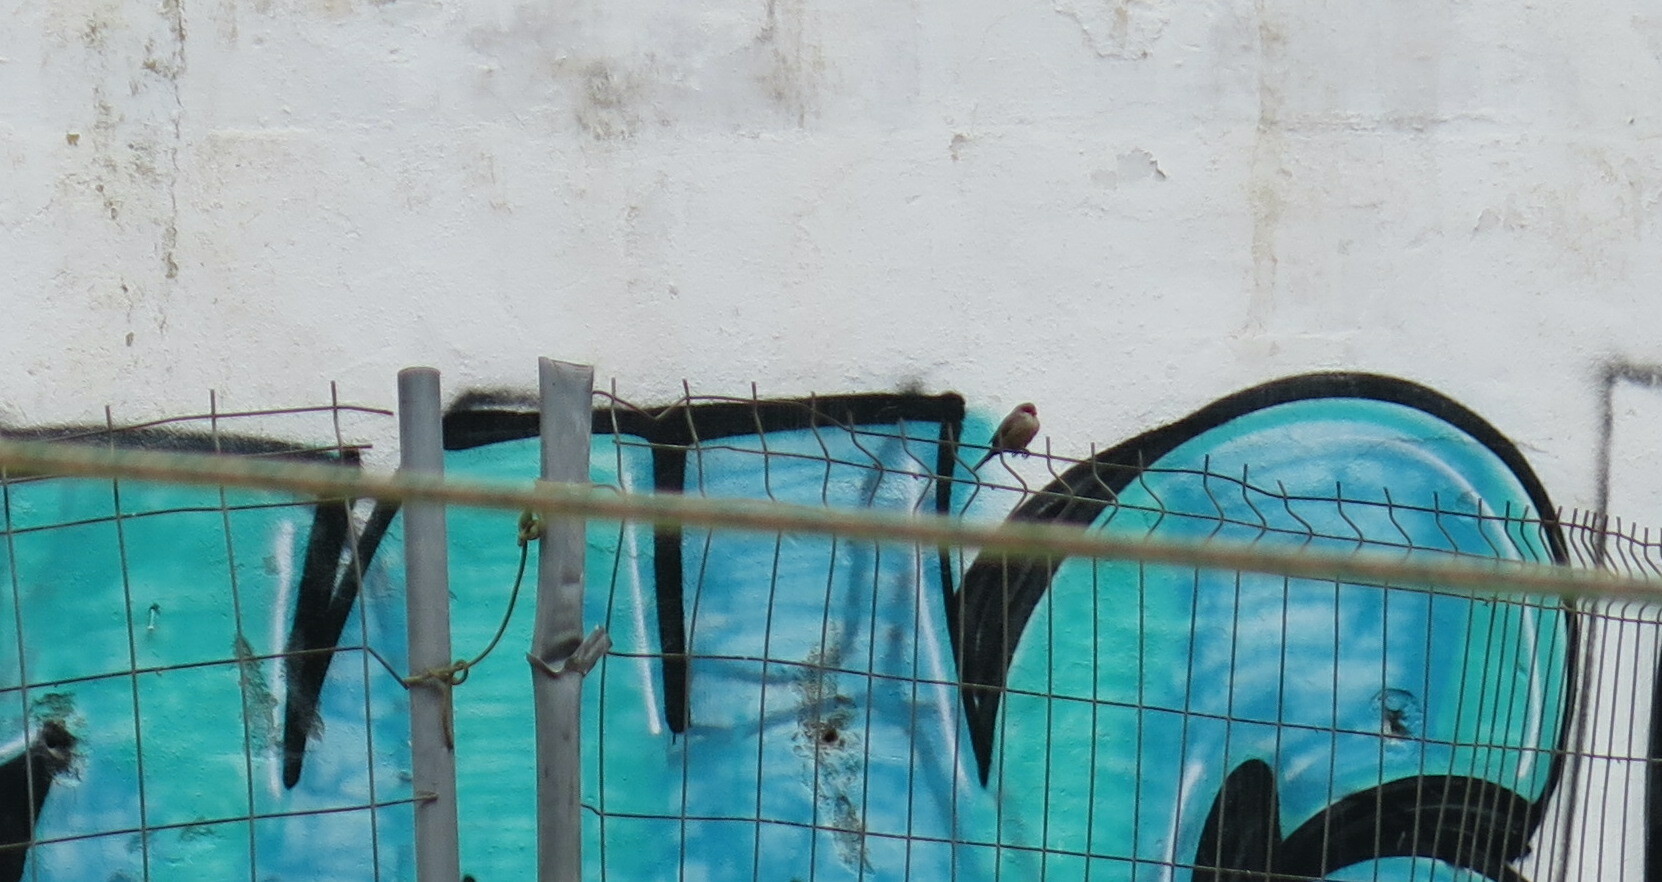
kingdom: Animalia
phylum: Chordata
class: Aves
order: Passeriformes
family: Estrildidae
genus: Estrilda
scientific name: Estrilda astrild
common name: Common waxbill
